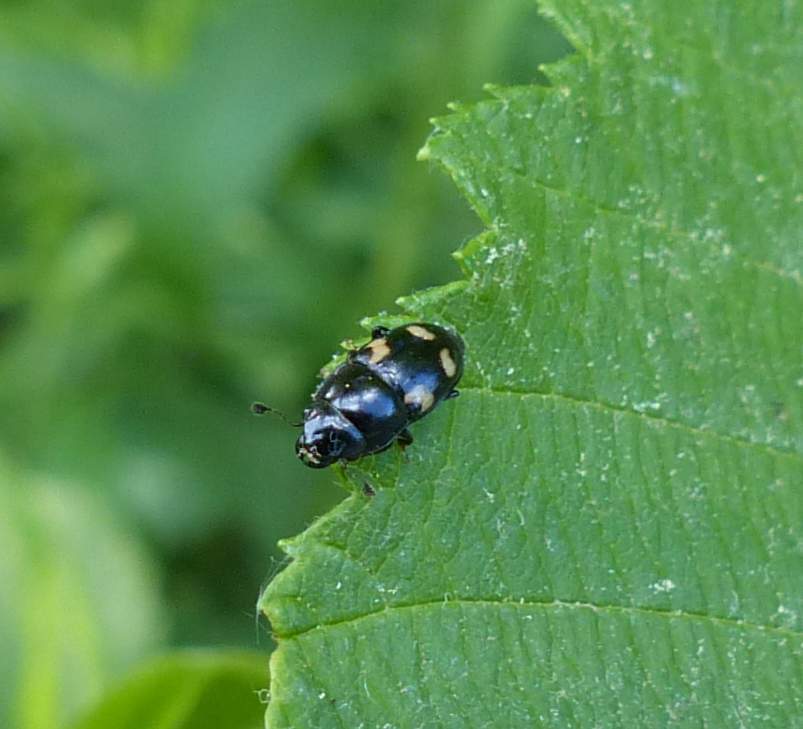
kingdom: Animalia
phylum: Arthropoda
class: Insecta
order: Coleoptera
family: Nitidulidae
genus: Glischrochilus
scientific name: Glischrochilus quadrisignatus
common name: Picnic beetle
